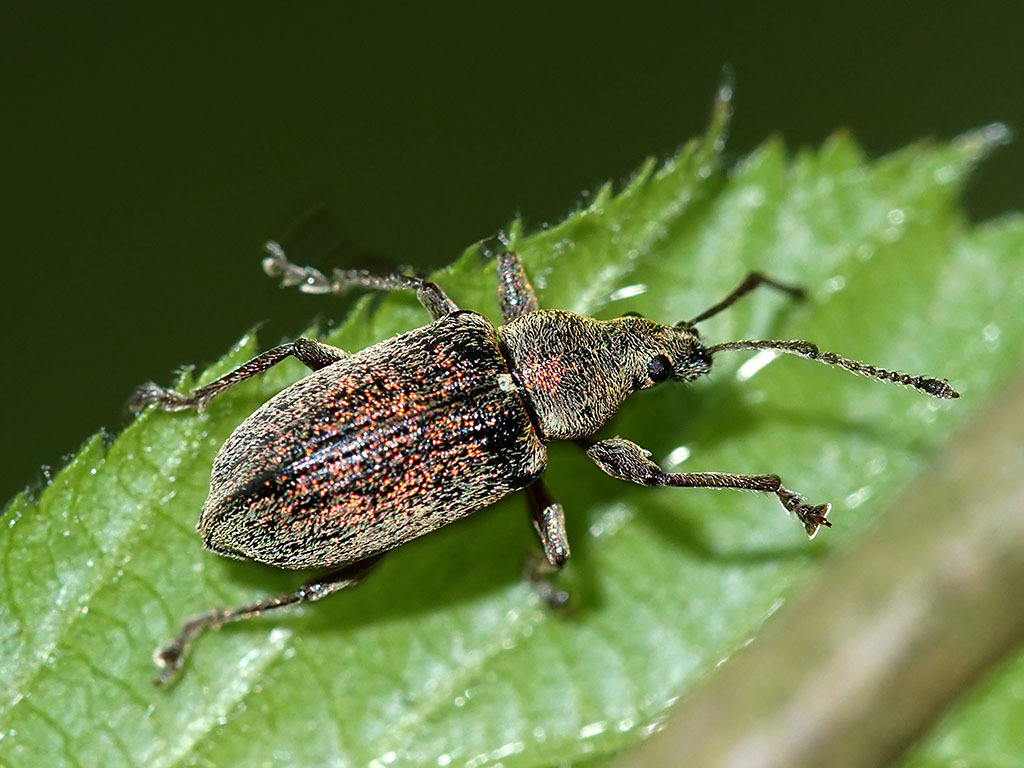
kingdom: Animalia
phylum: Arthropoda
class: Insecta
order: Coleoptera
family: Curculionidae
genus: Phyllobius
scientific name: Phyllobius pyri
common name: Common leaf weevil
